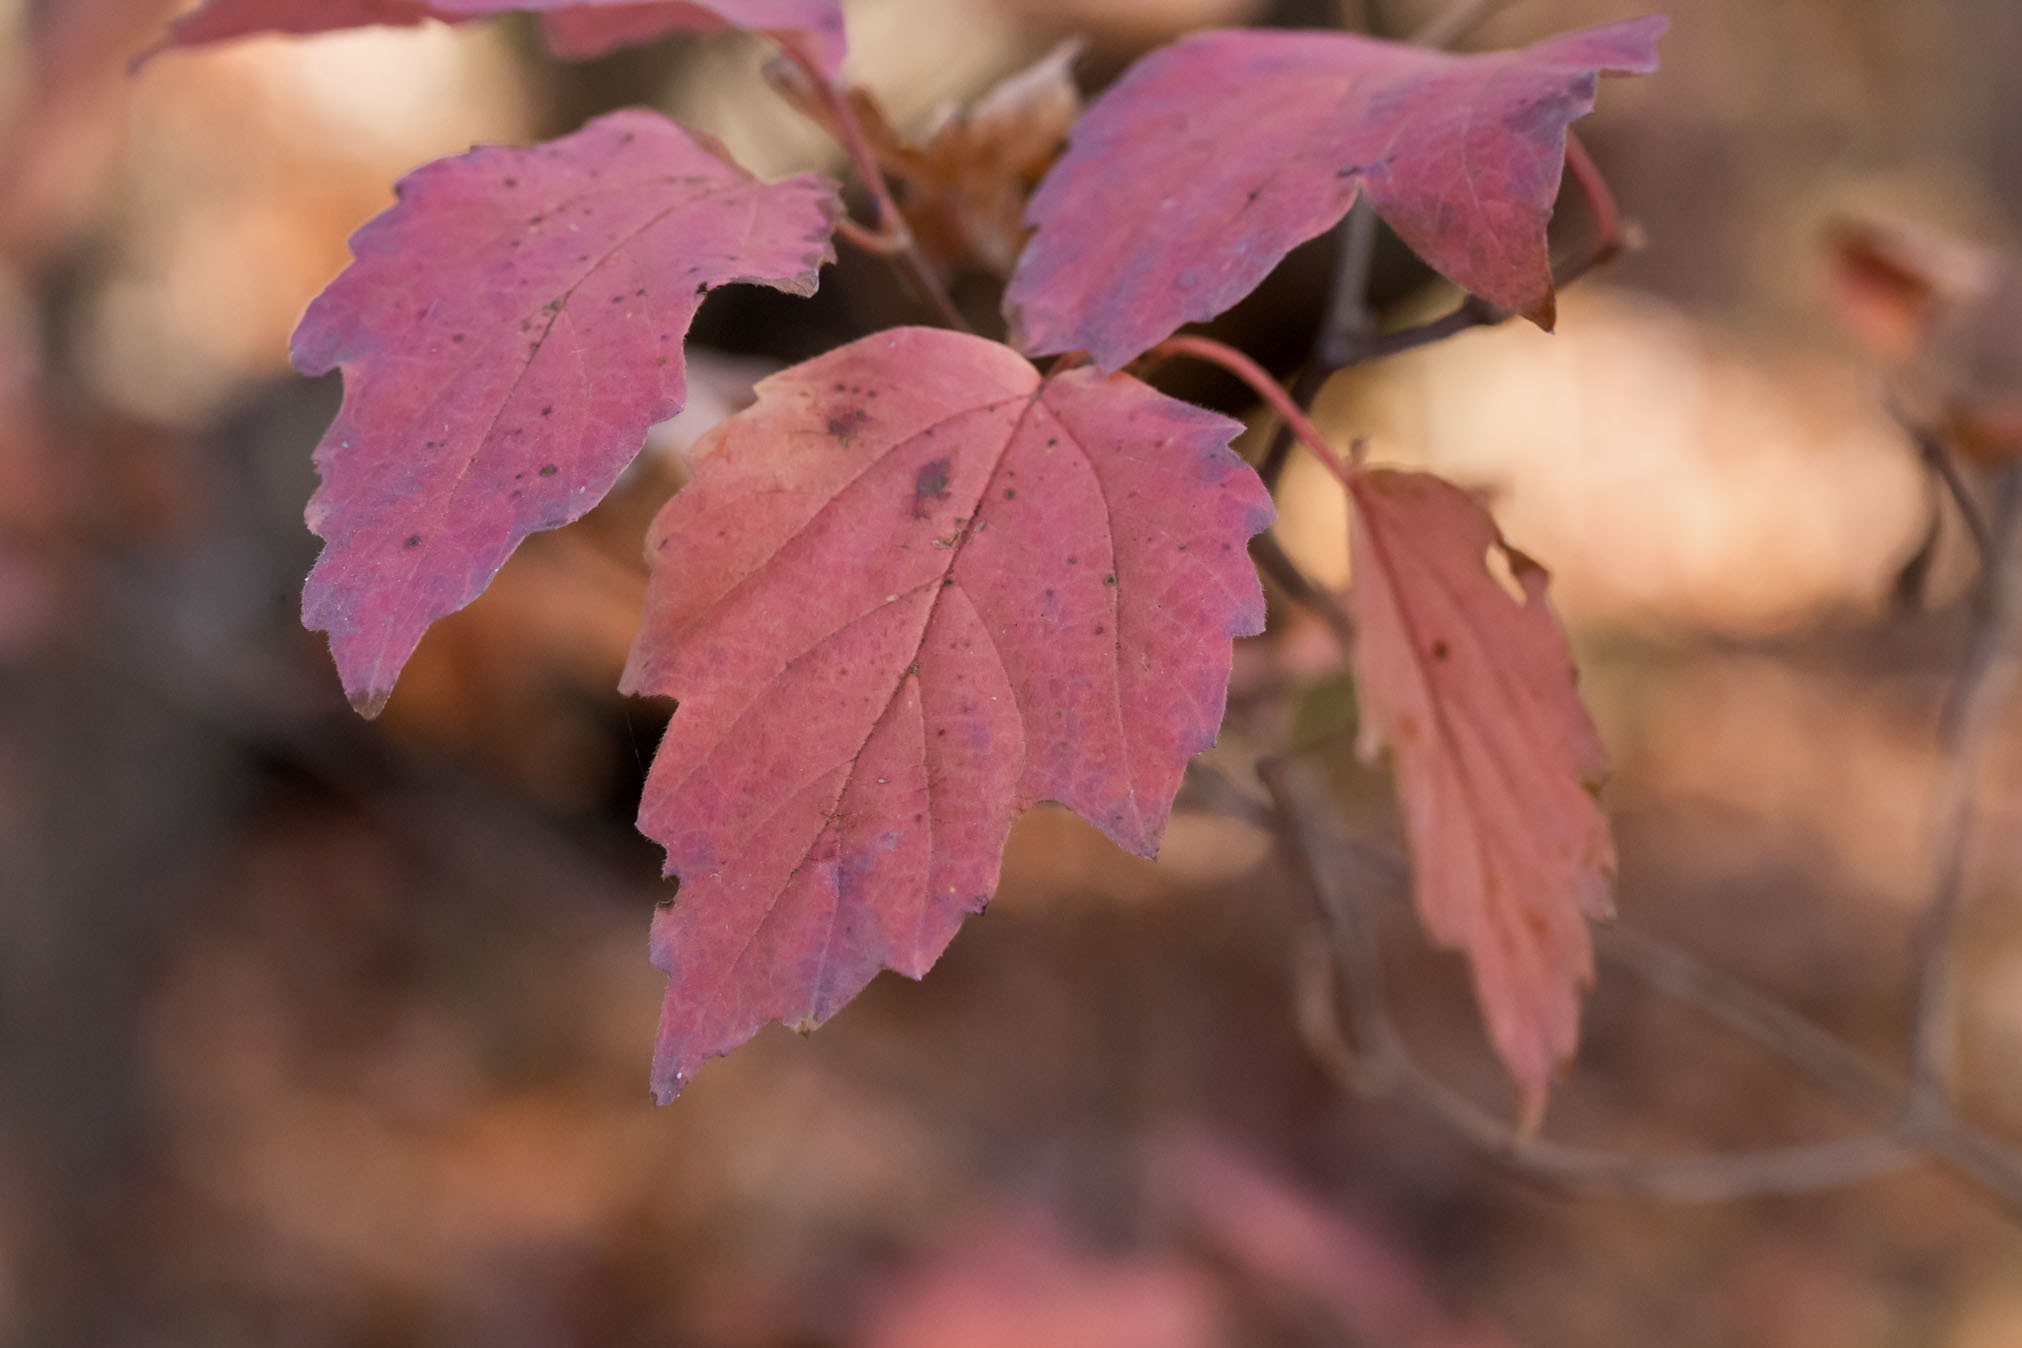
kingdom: Plantae
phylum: Tracheophyta
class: Magnoliopsida
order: Dipsacales
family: Viburnaceae
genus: Viburnum
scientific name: Viburnum acerifolium
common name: Dockmackie
